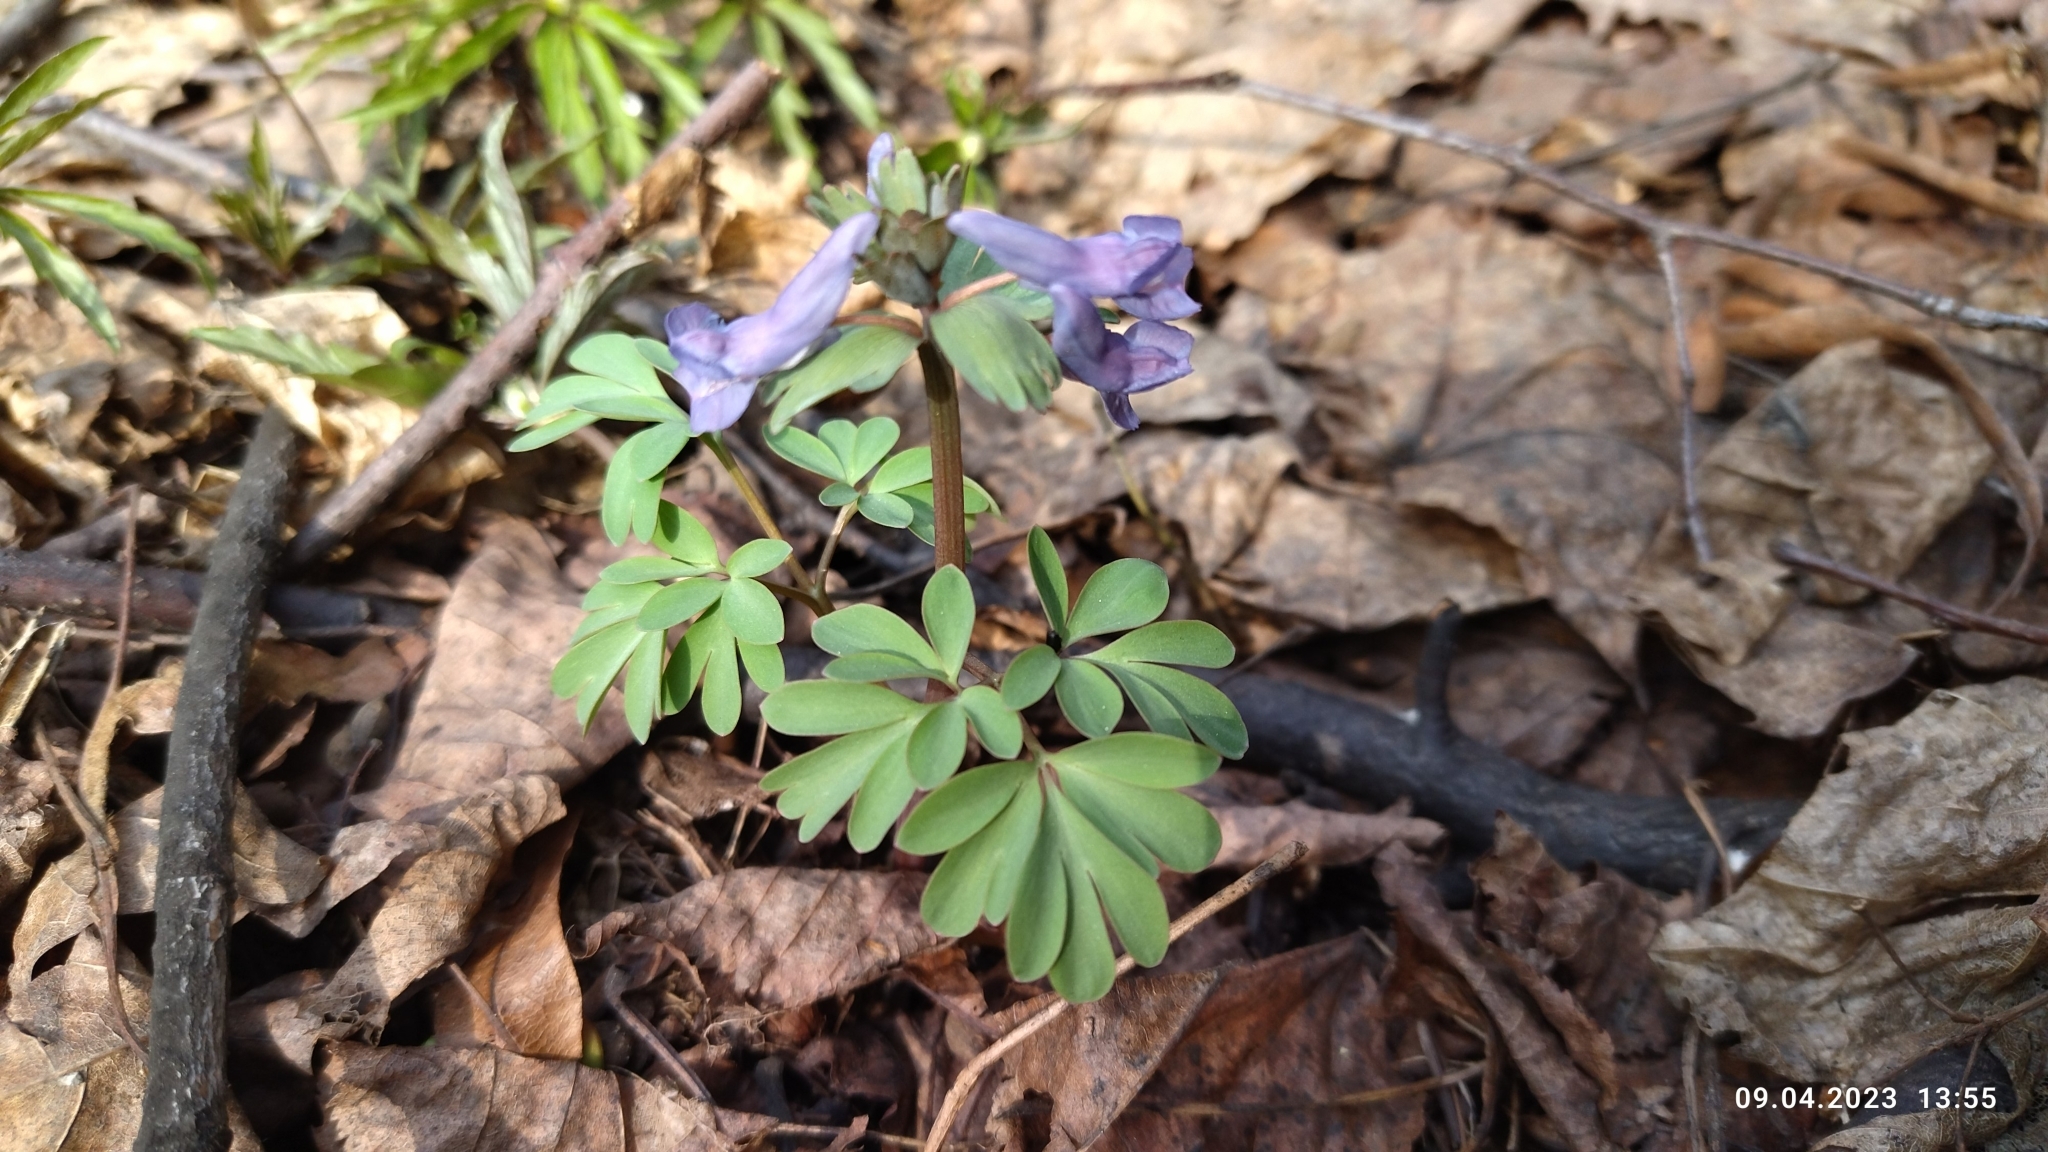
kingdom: Plantae
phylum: Tracheophyta
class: Magnoliopsida
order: Ranunculales
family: Papaveraceae
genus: Corydalis
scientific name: Corydalis solida
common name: Bird-in-a-bush
